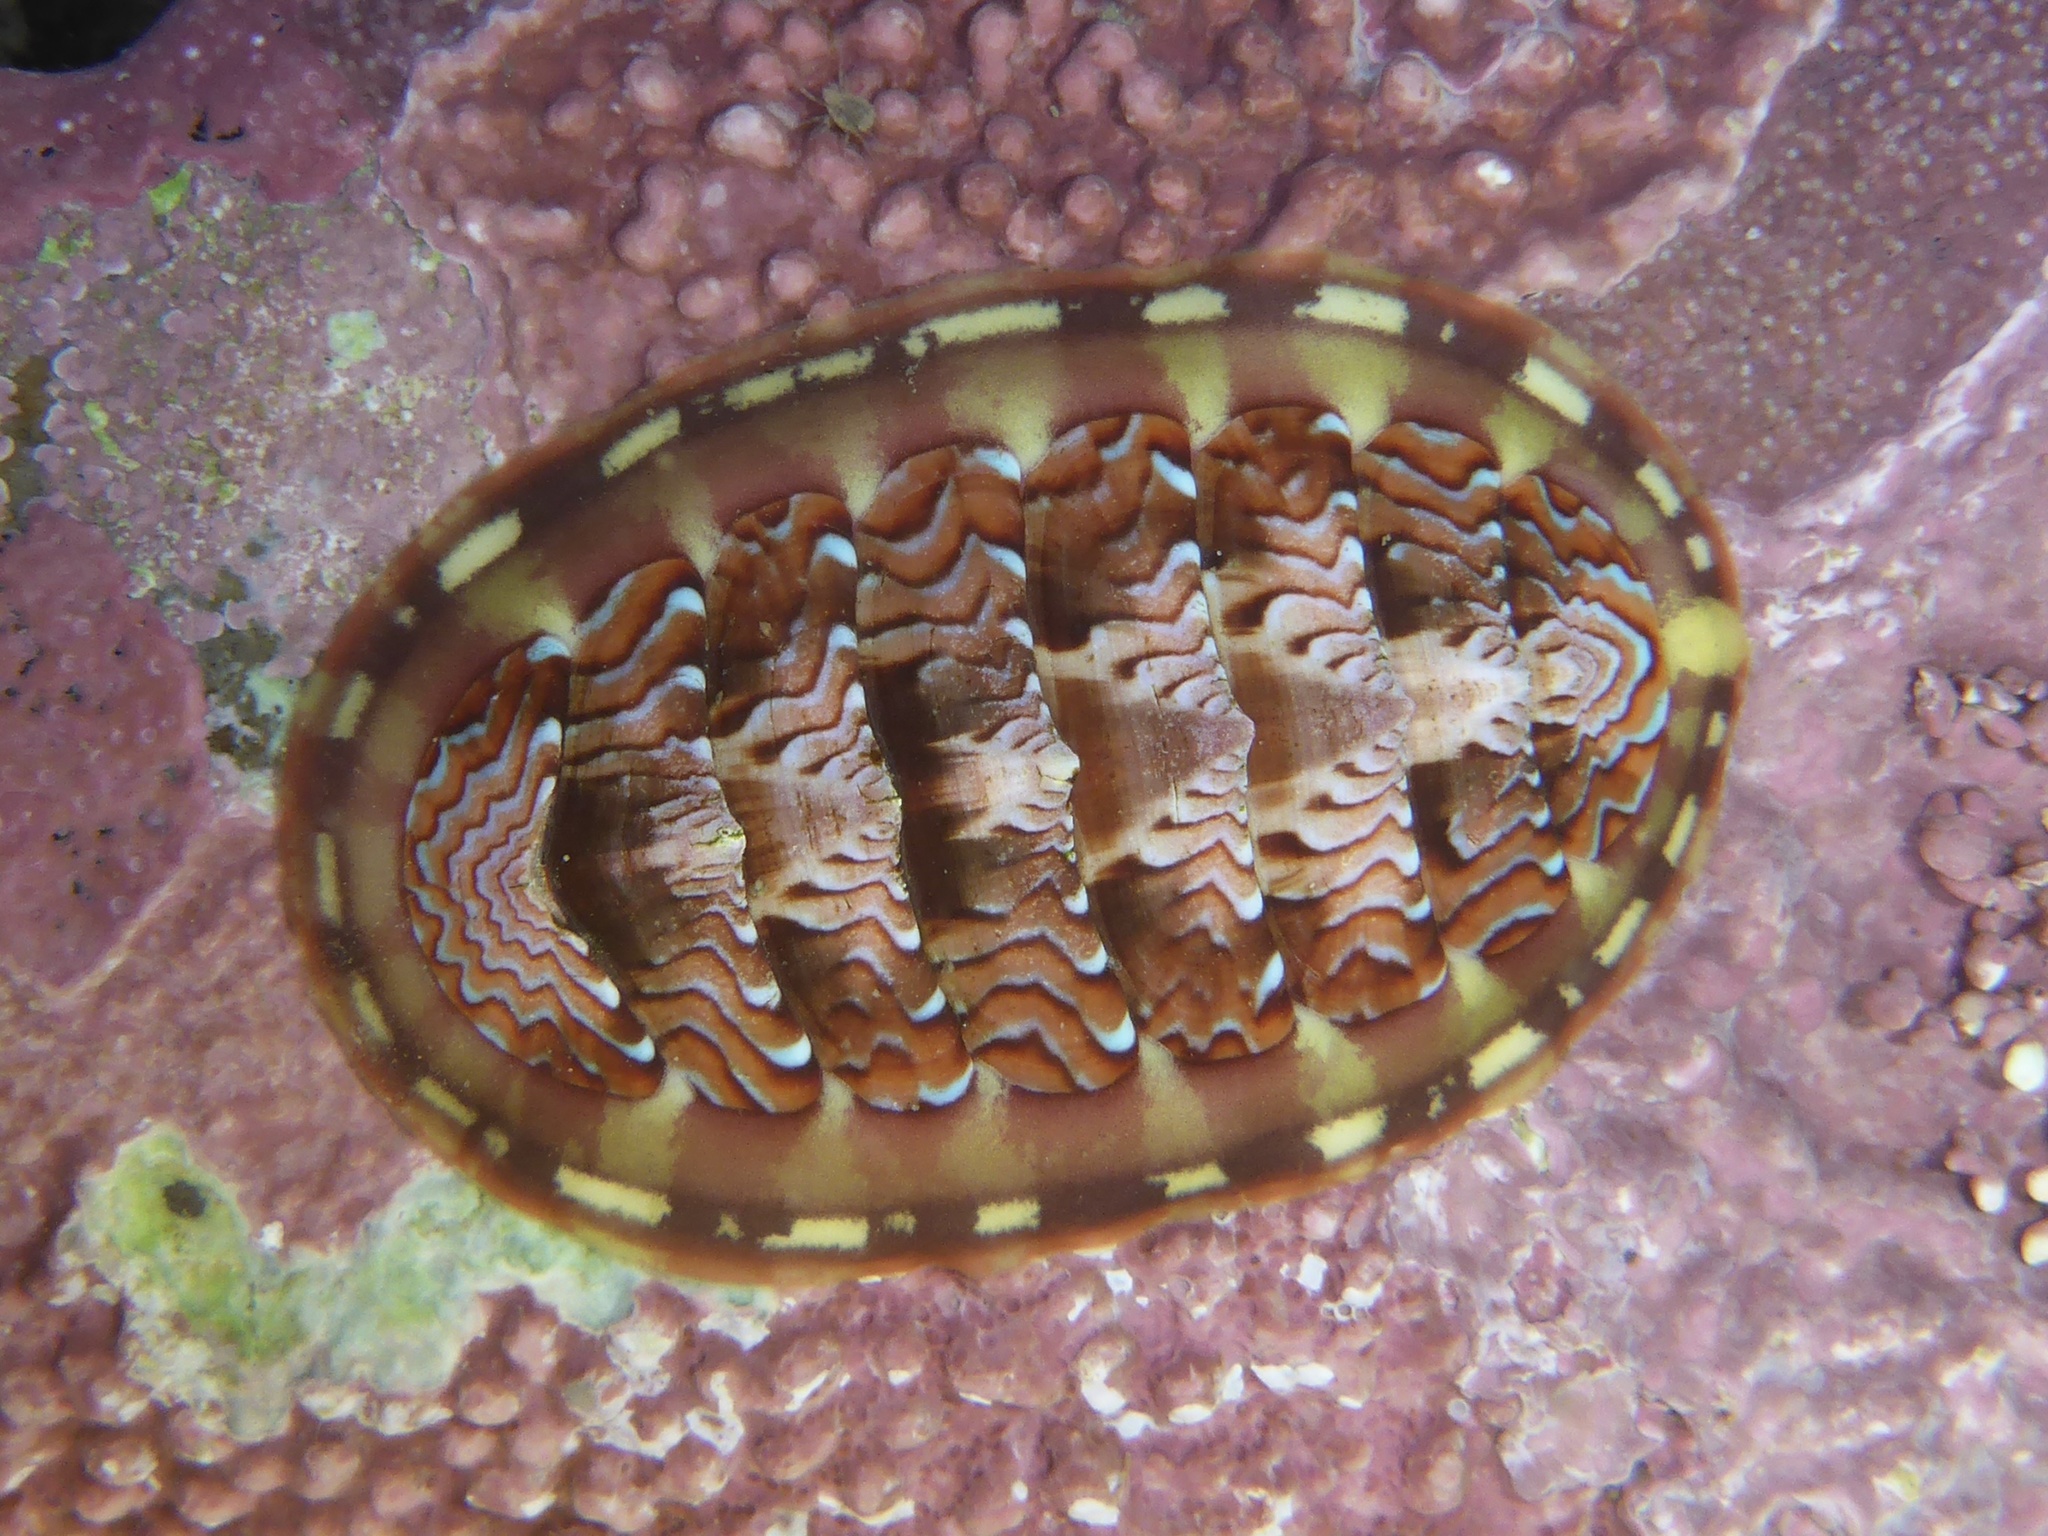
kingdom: Animalia
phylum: Mollusca
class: Polyplacophora
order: Chitonida
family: Tonicellidae
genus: Tonicella
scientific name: Tonicella lokii
